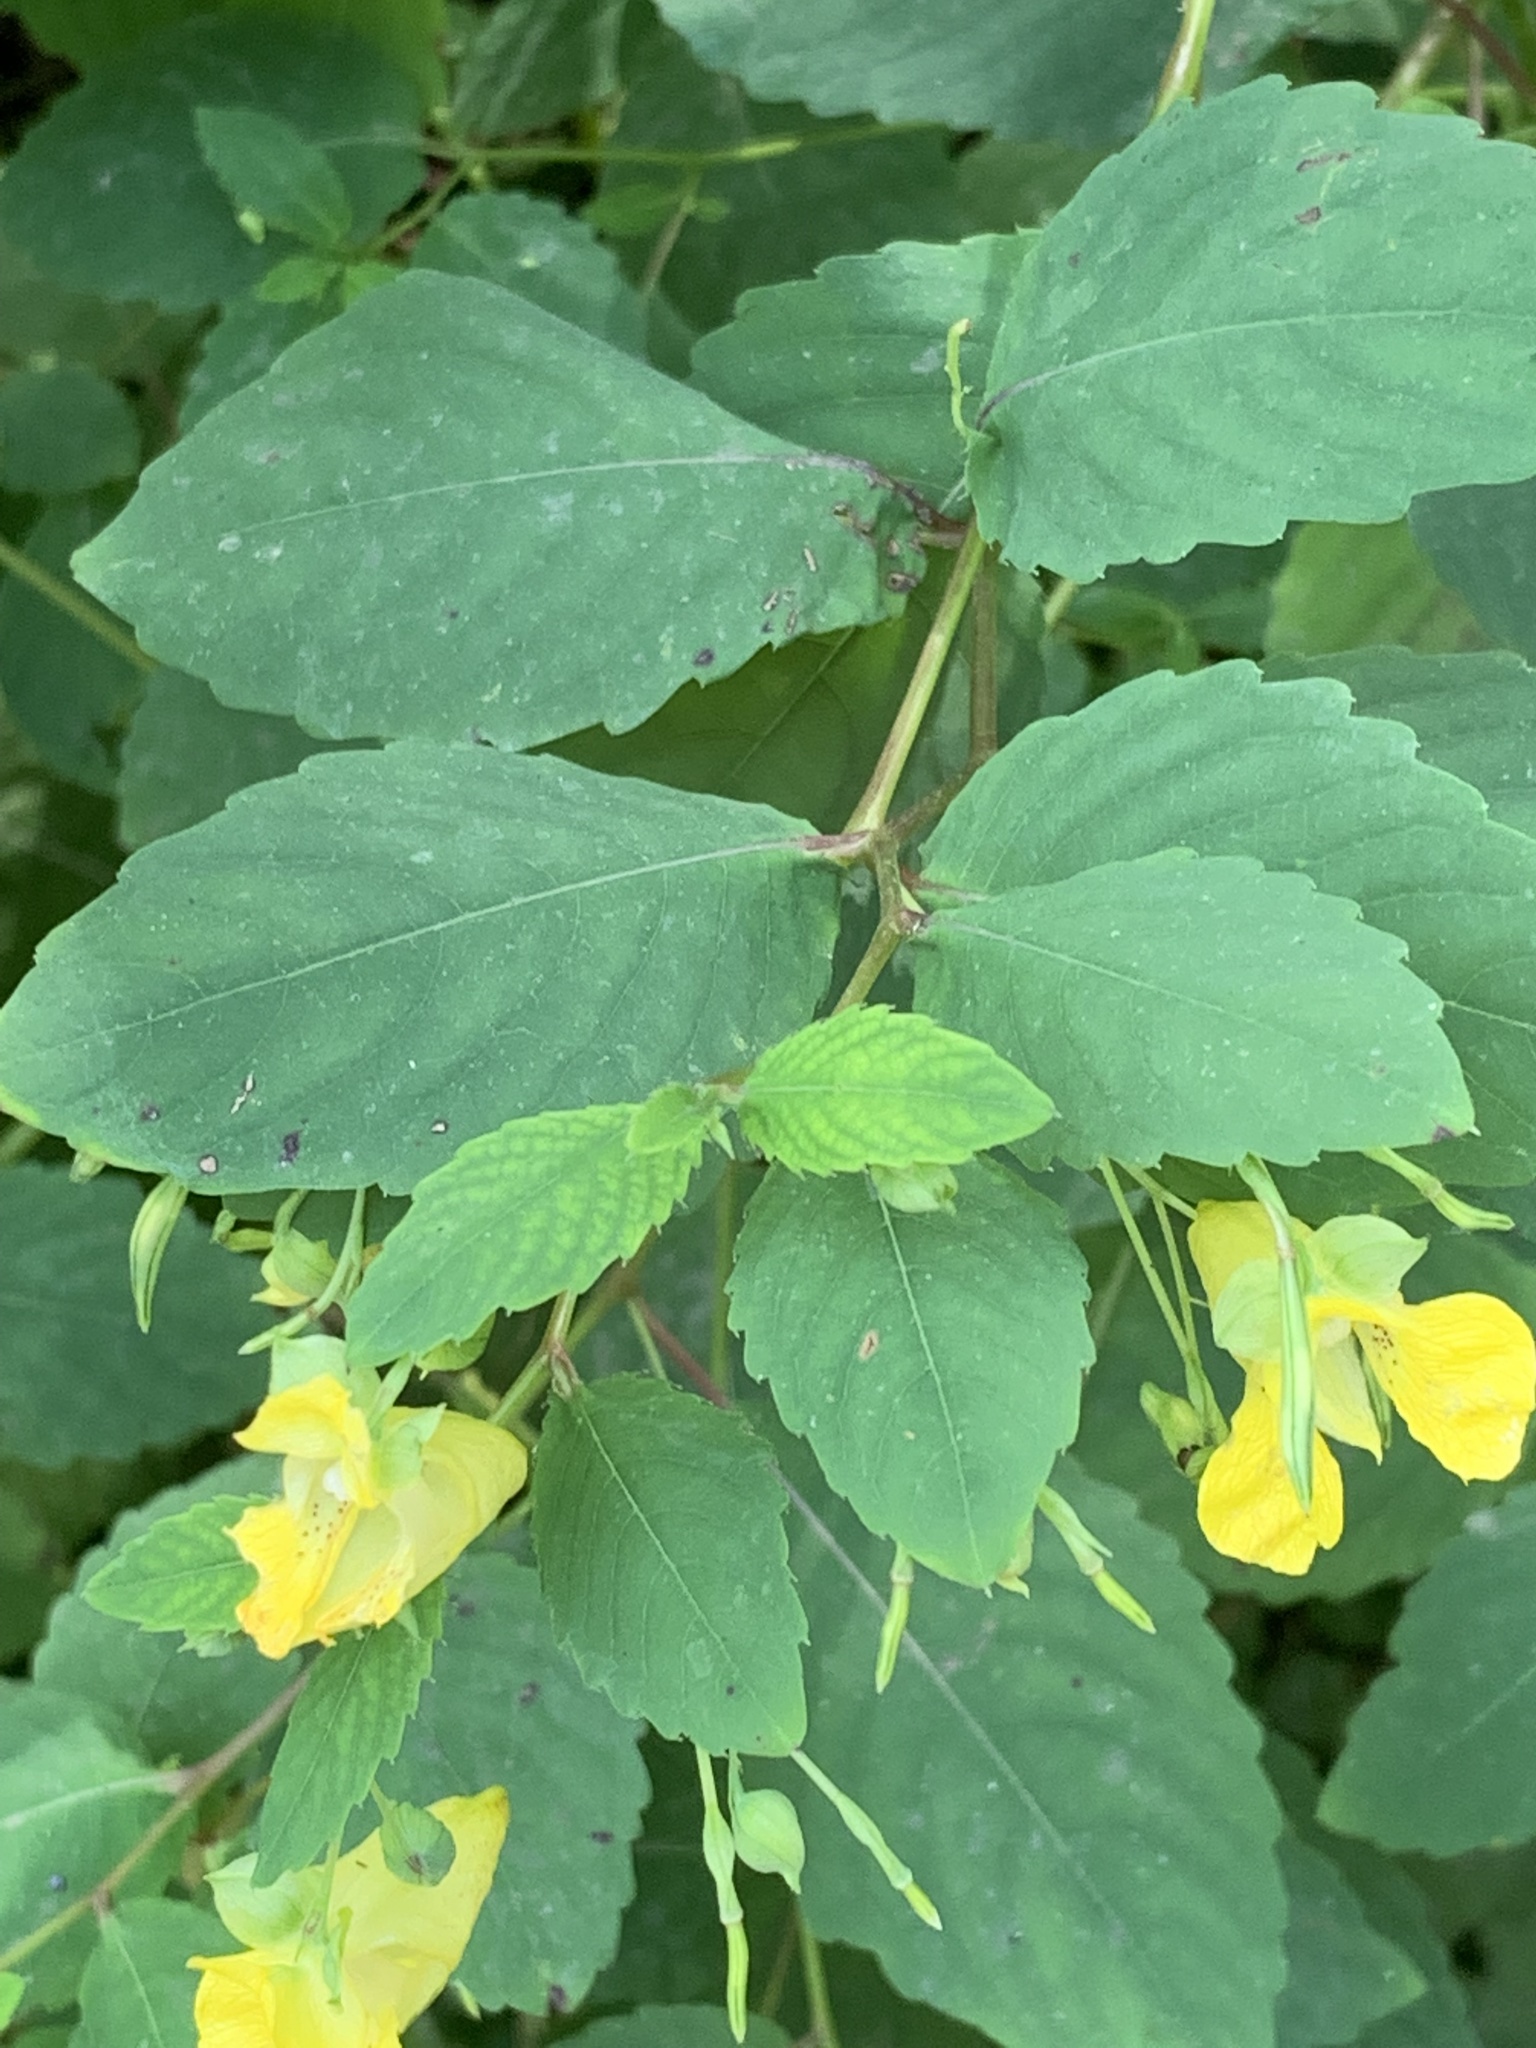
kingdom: Plantae
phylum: Tracheophyta
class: Magnoliopsida
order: Ericales
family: Balsaminaceae
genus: Impatiens
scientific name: Impatiens pallida
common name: Pale snapweed
